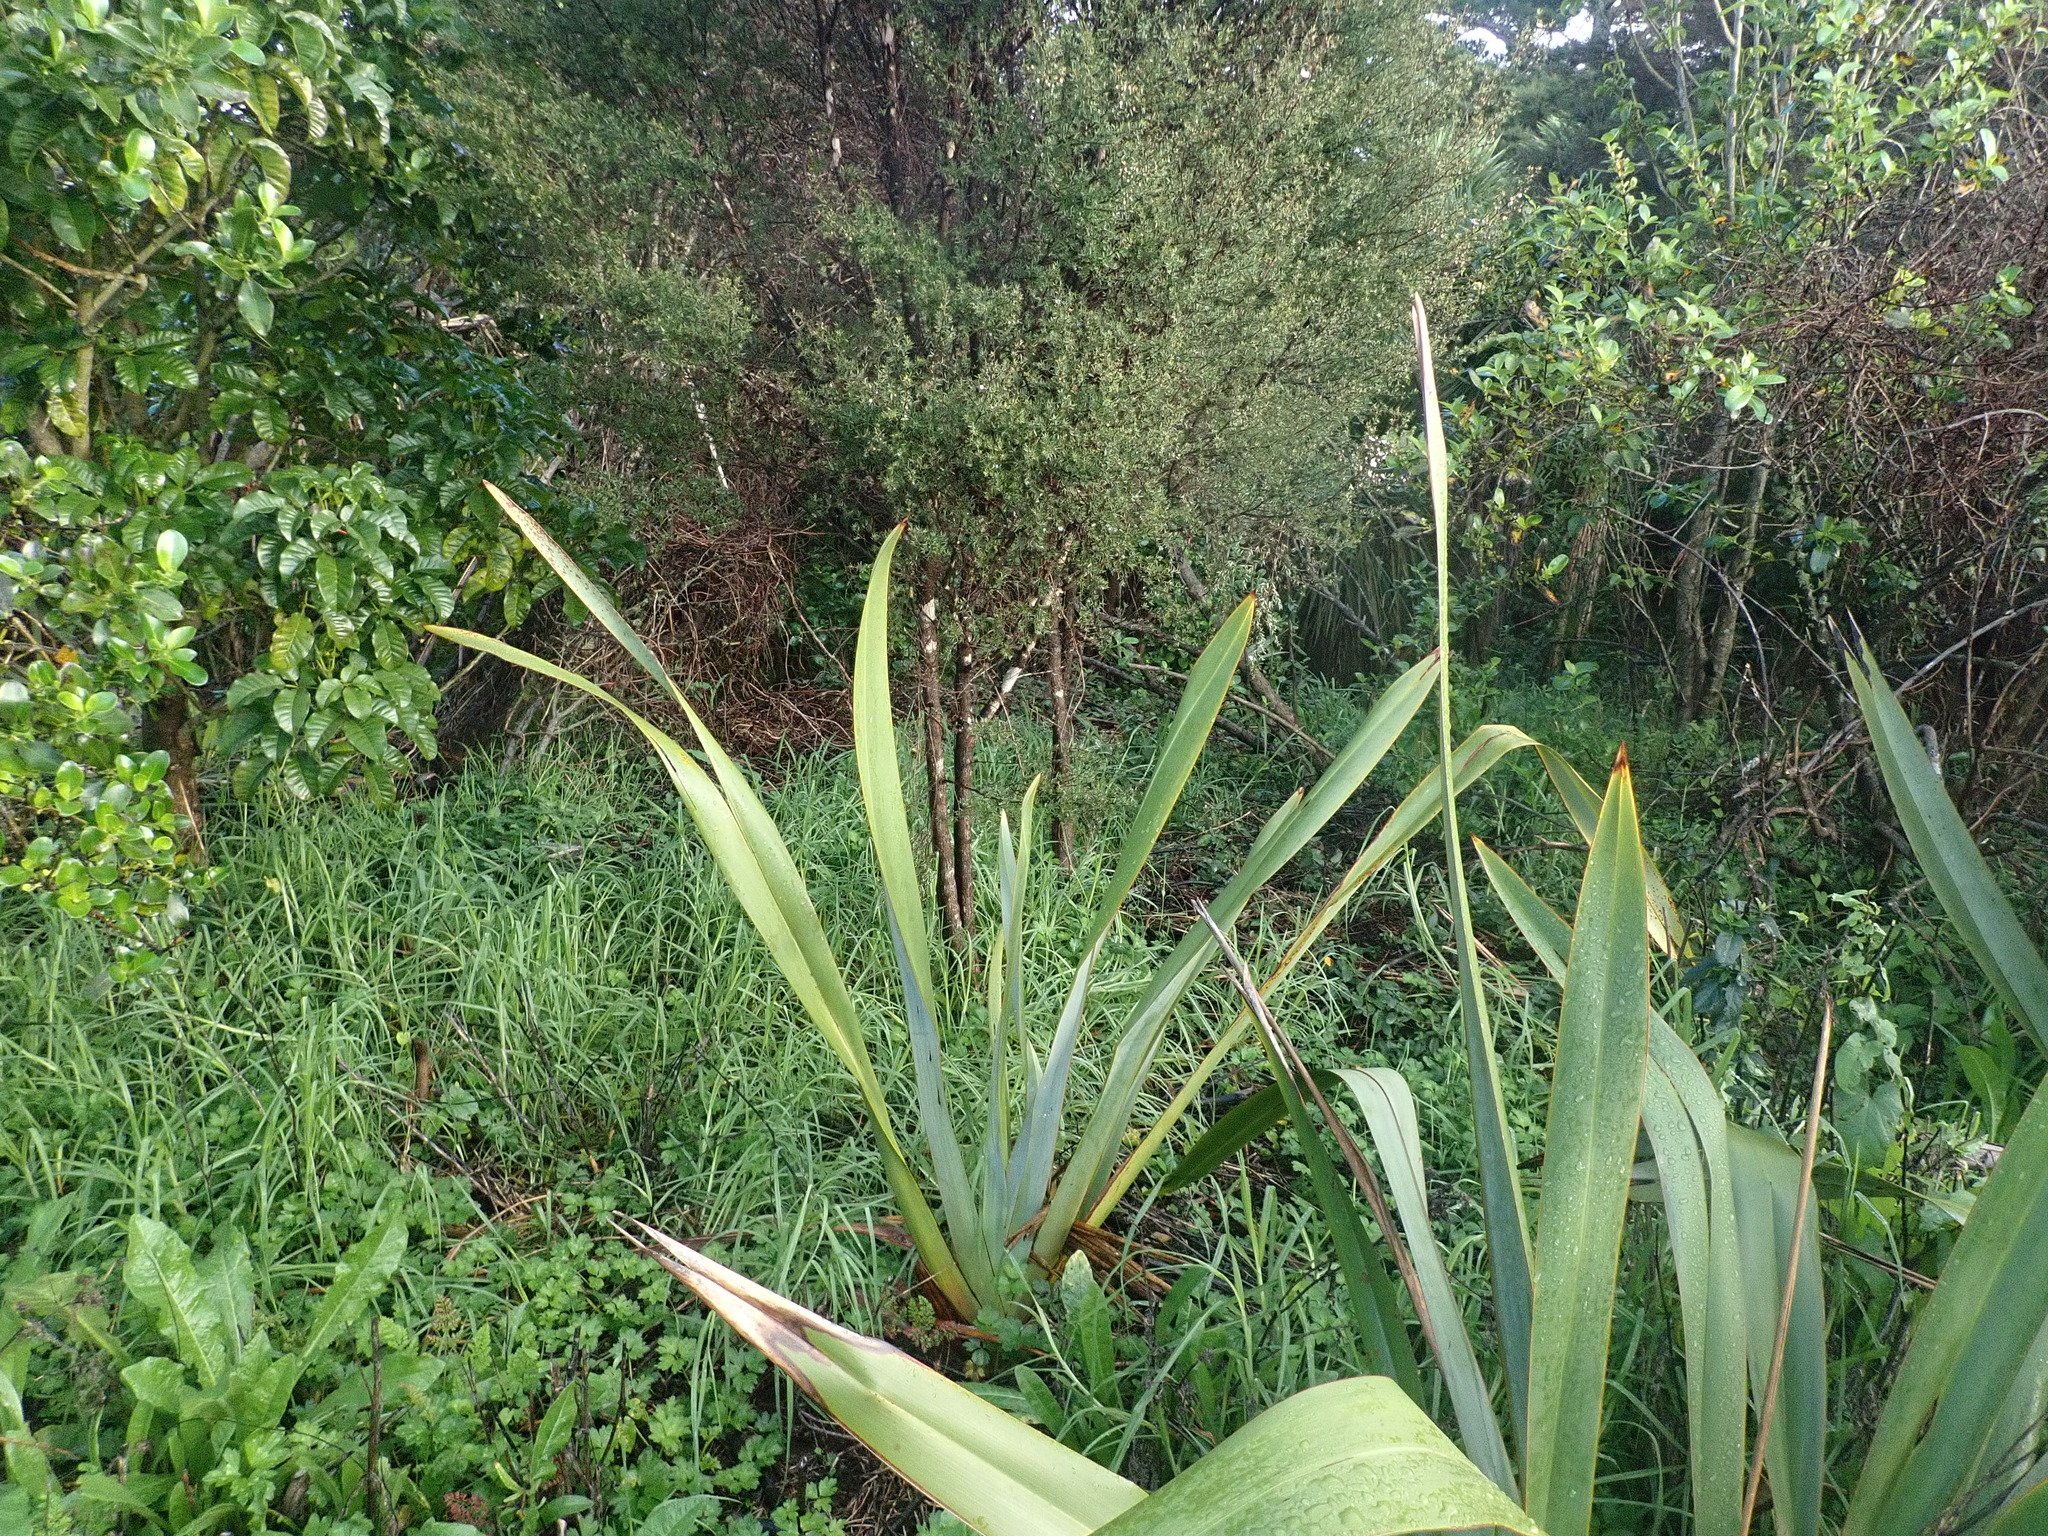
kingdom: Plantae
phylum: Tracheophyta
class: Liliopsida
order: Poales
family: Poaceae
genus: Cenchrus
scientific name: Cenchrus clandestinus
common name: Kikuyugrass
